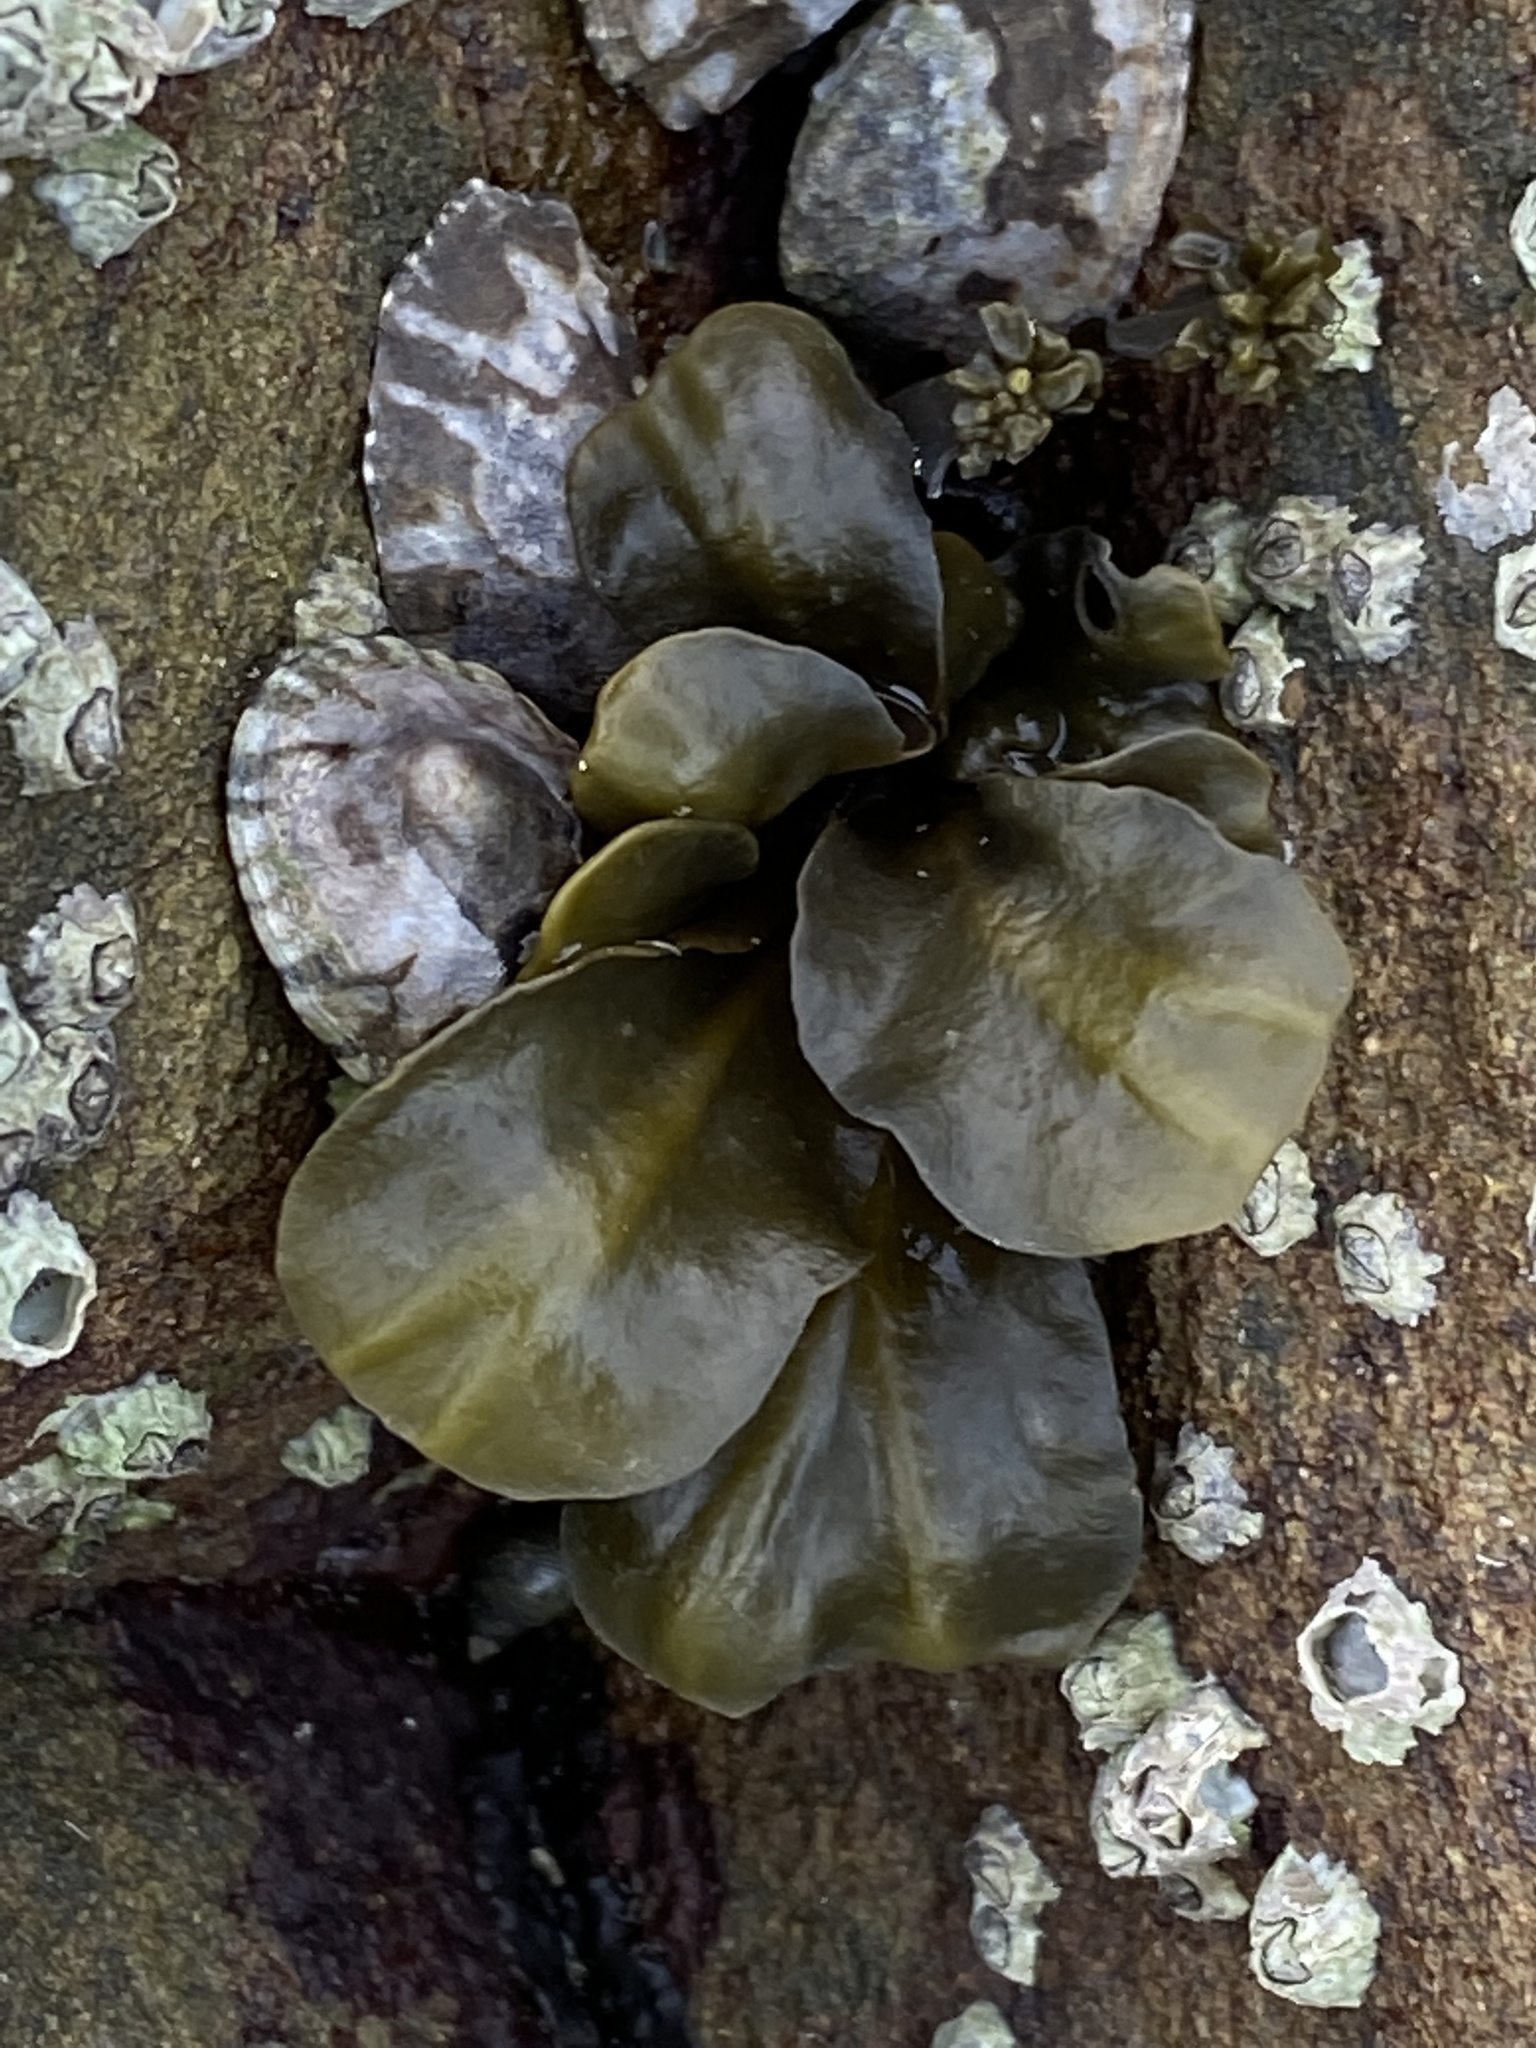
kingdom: Chromista
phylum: Ochrophyta
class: Phaeophyceae
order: Fucales
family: Fucaceae
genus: Fucus
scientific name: Fucus distichus
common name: Rockweed
